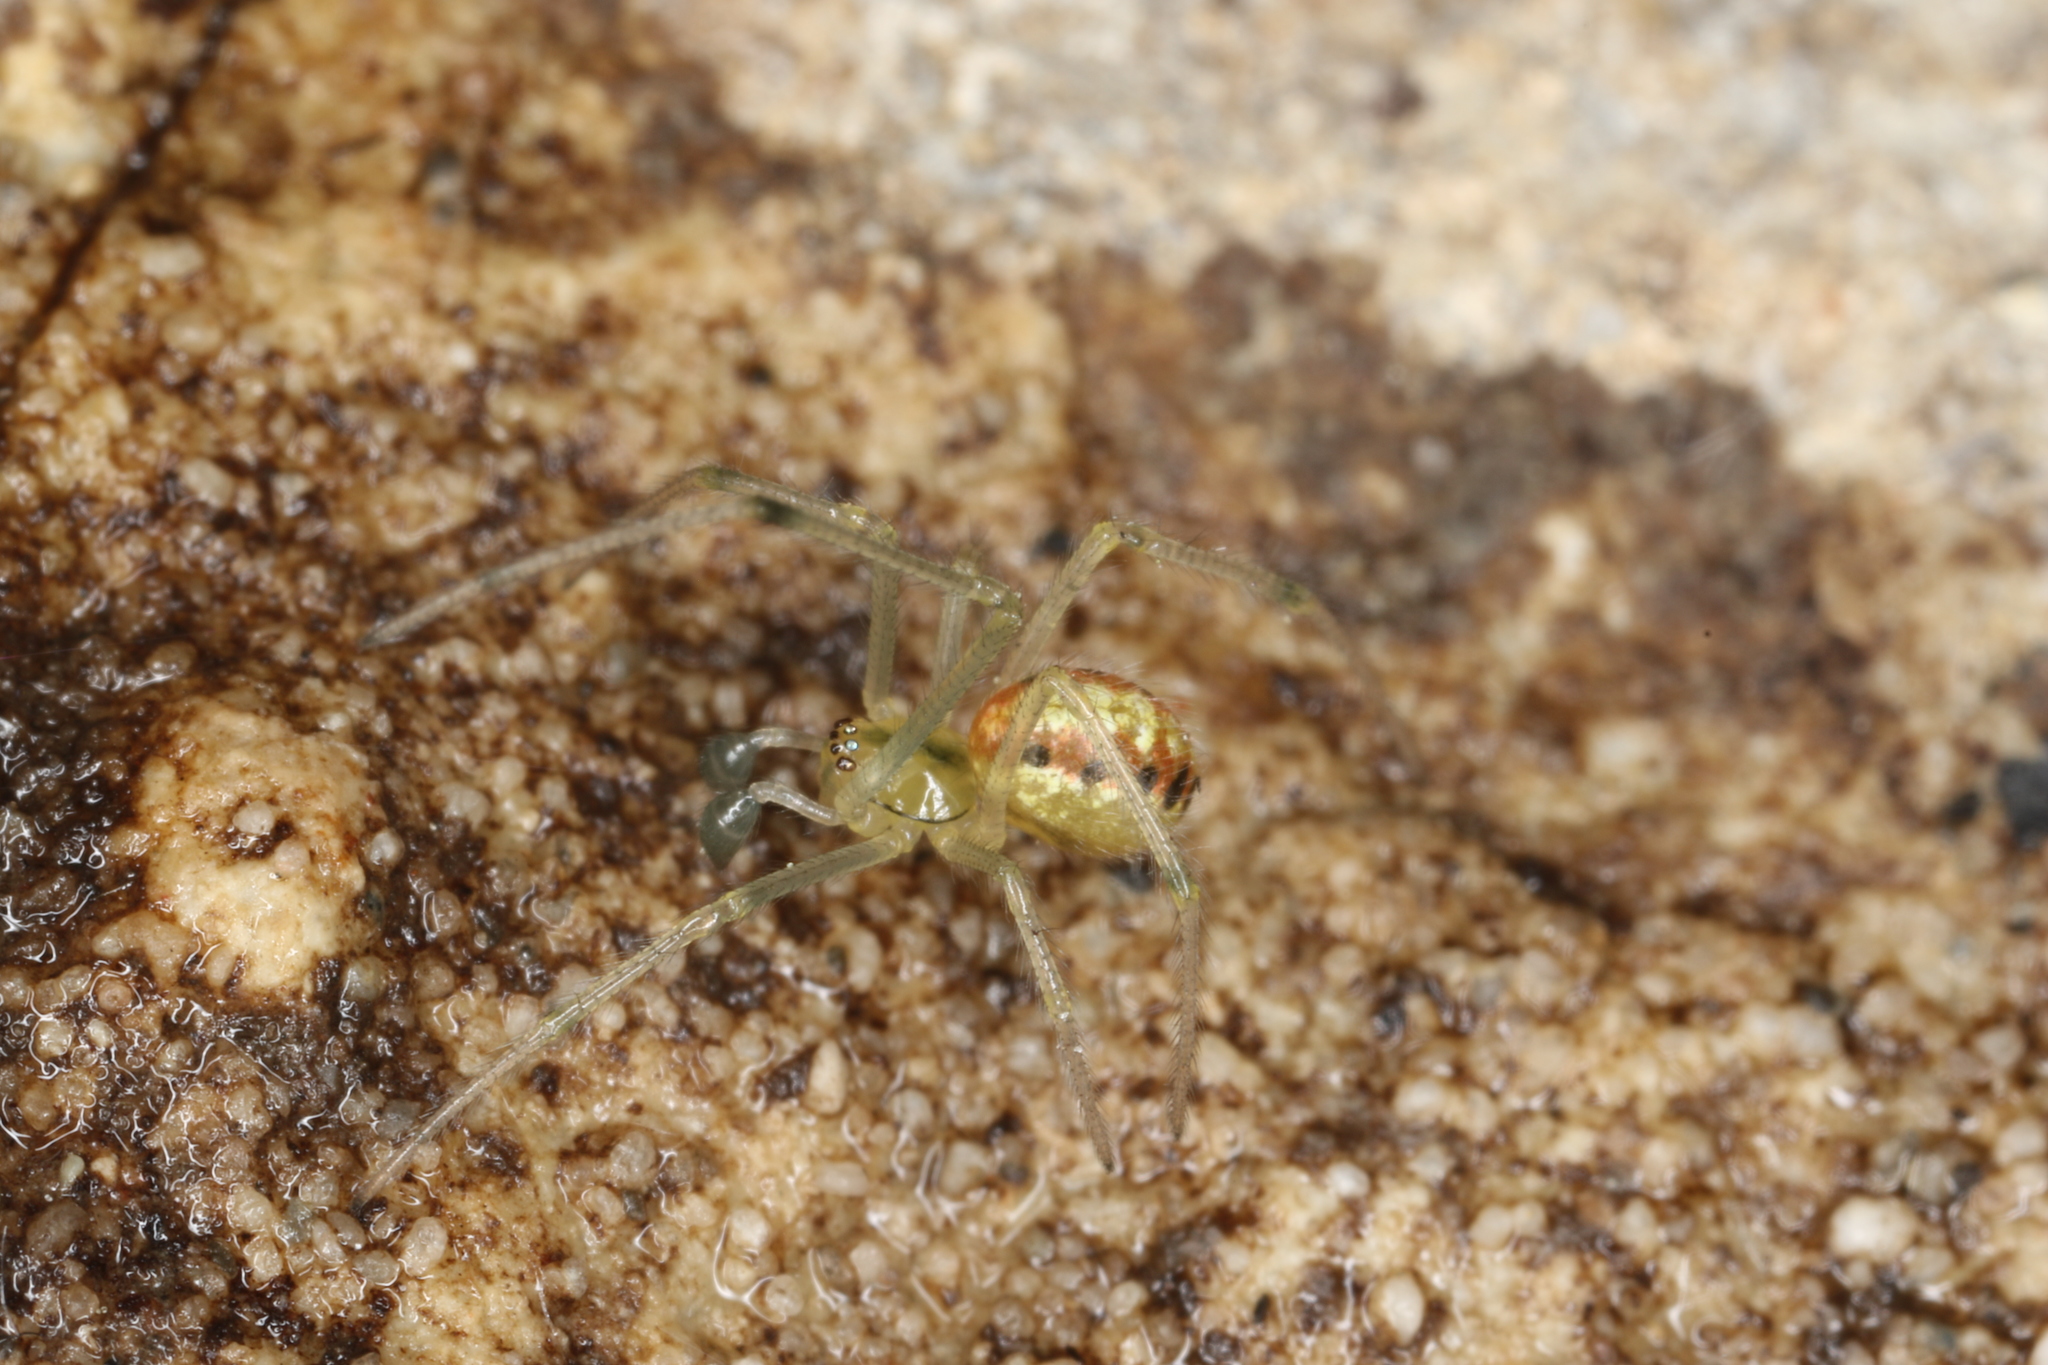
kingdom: Animalia
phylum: Arthropoda
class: Arachnida
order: Araneae
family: Theridiidae
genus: Enoplognatha
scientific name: Enoplognatha
